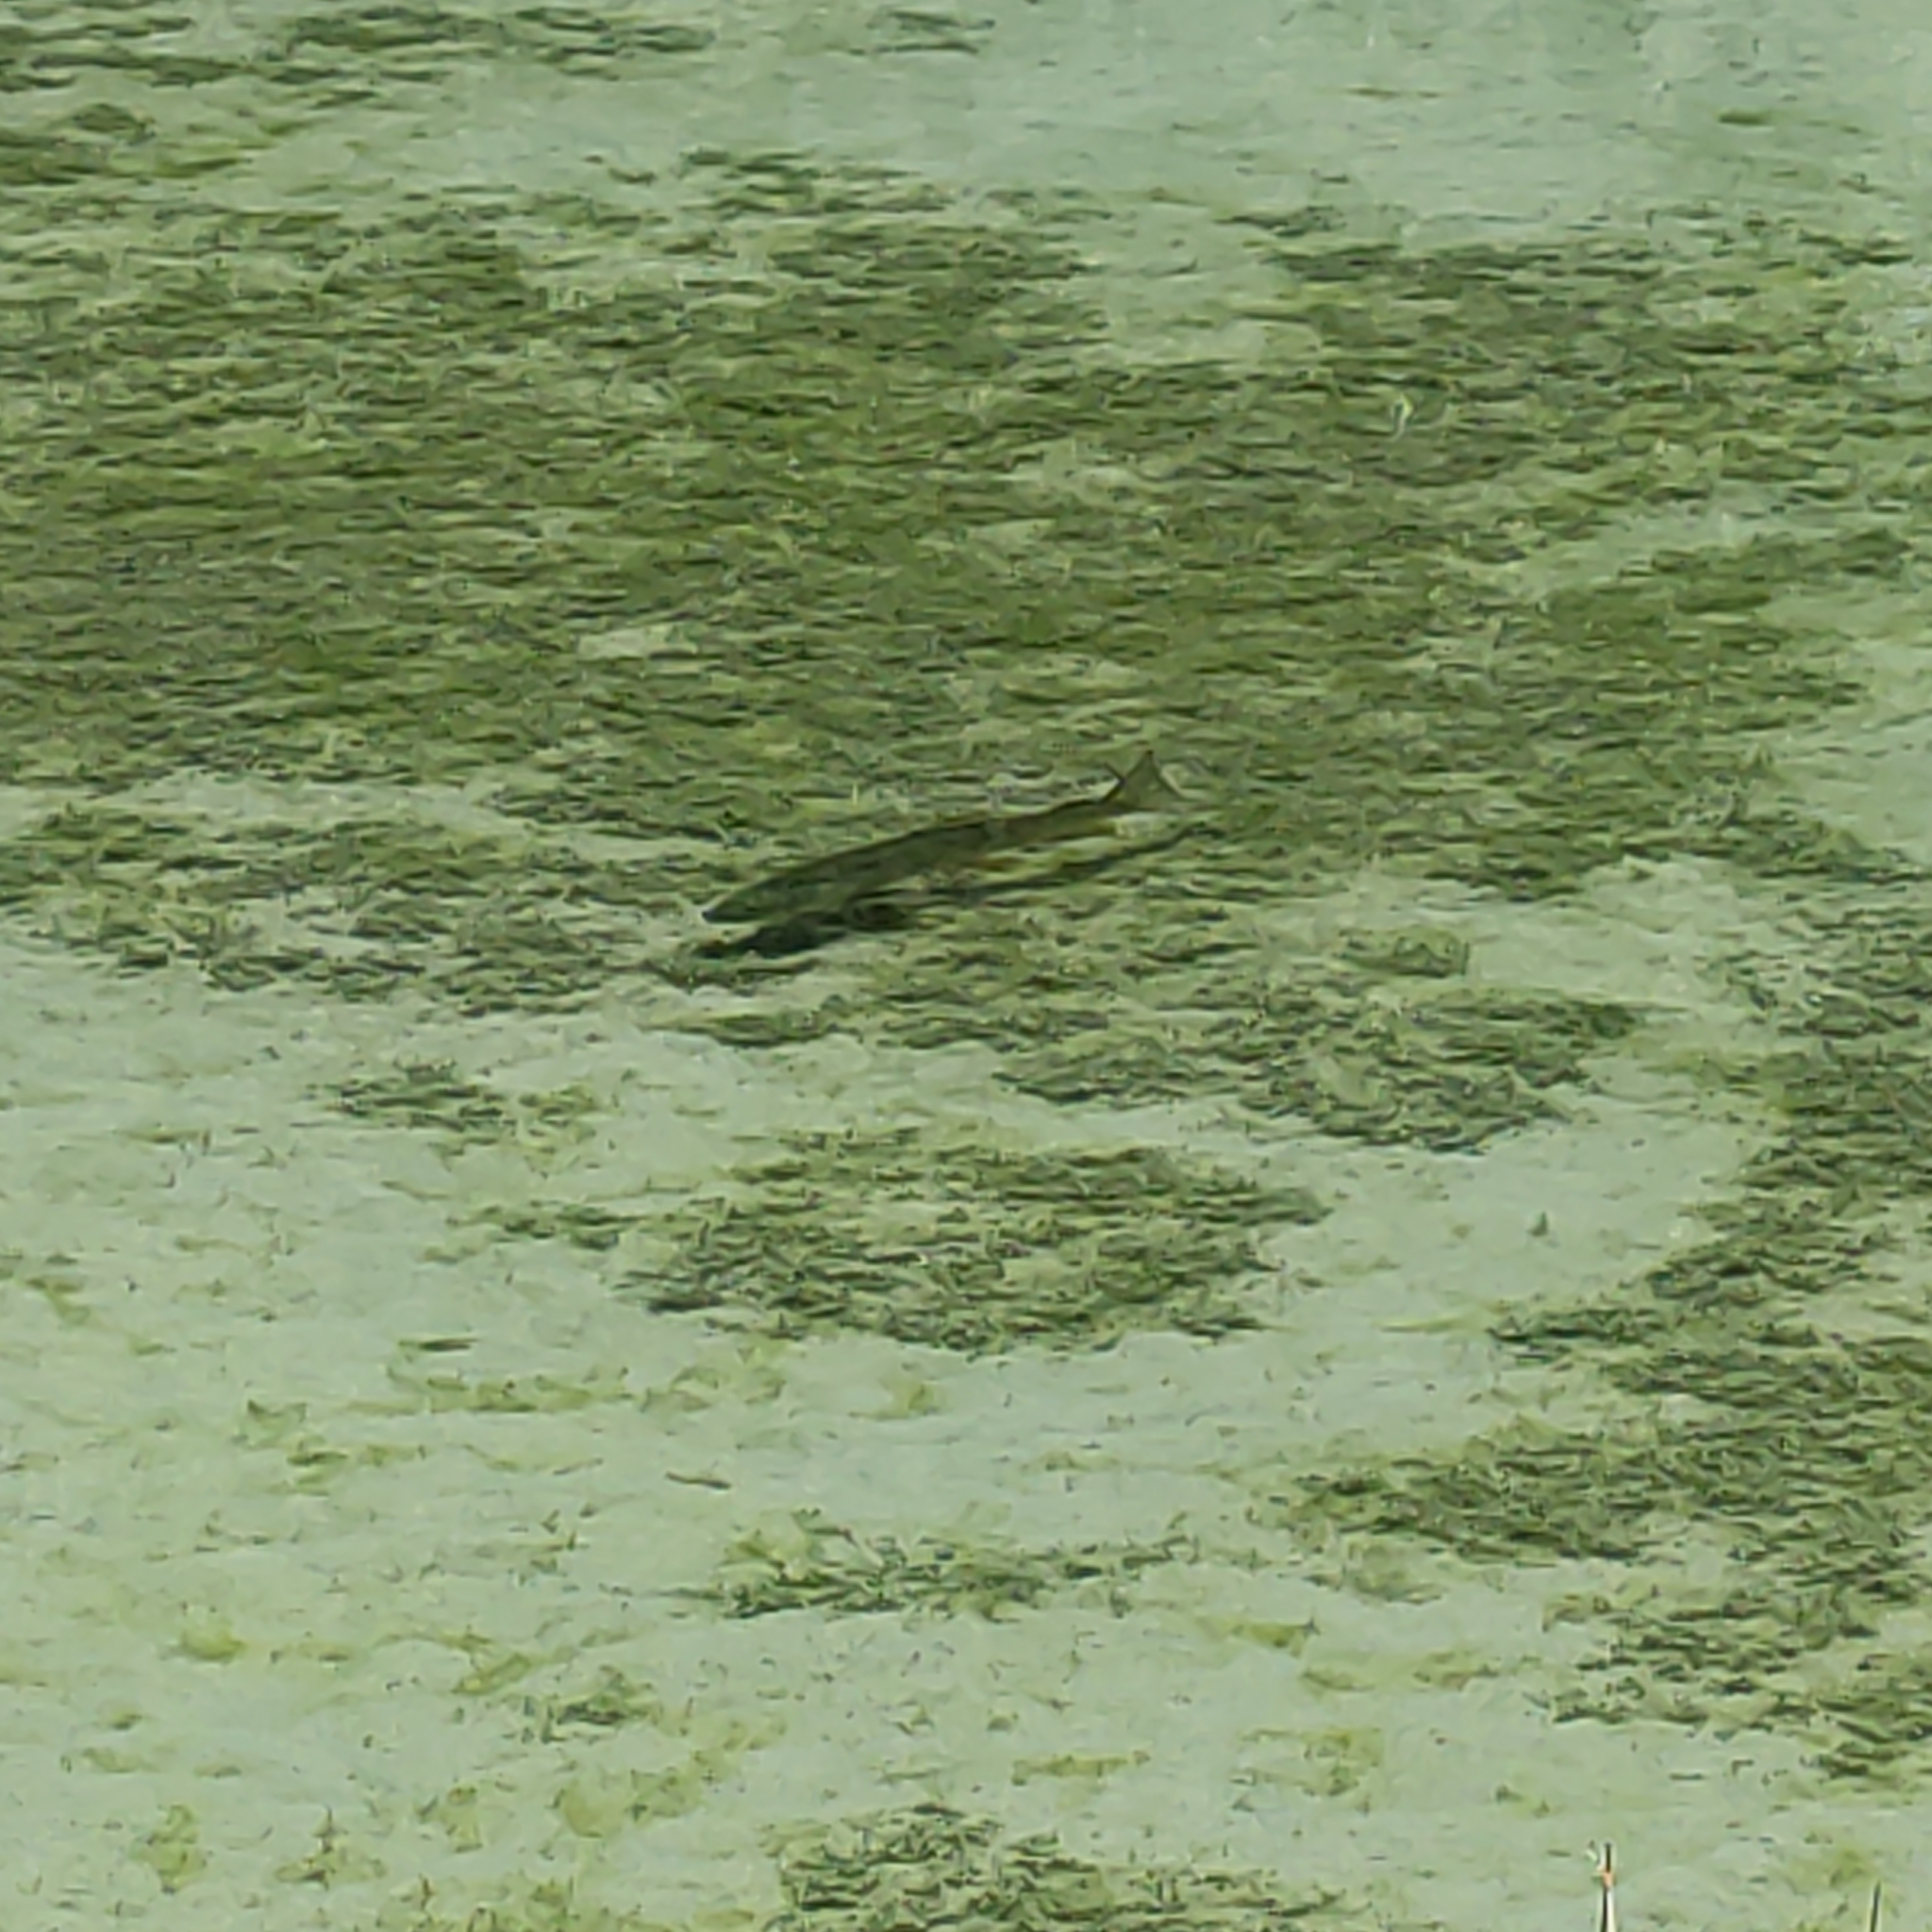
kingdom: Animalia
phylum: Chordata
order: Salmoniformes
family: Salmonidae
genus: Salmo
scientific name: Salmo trutta
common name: Brown trout
